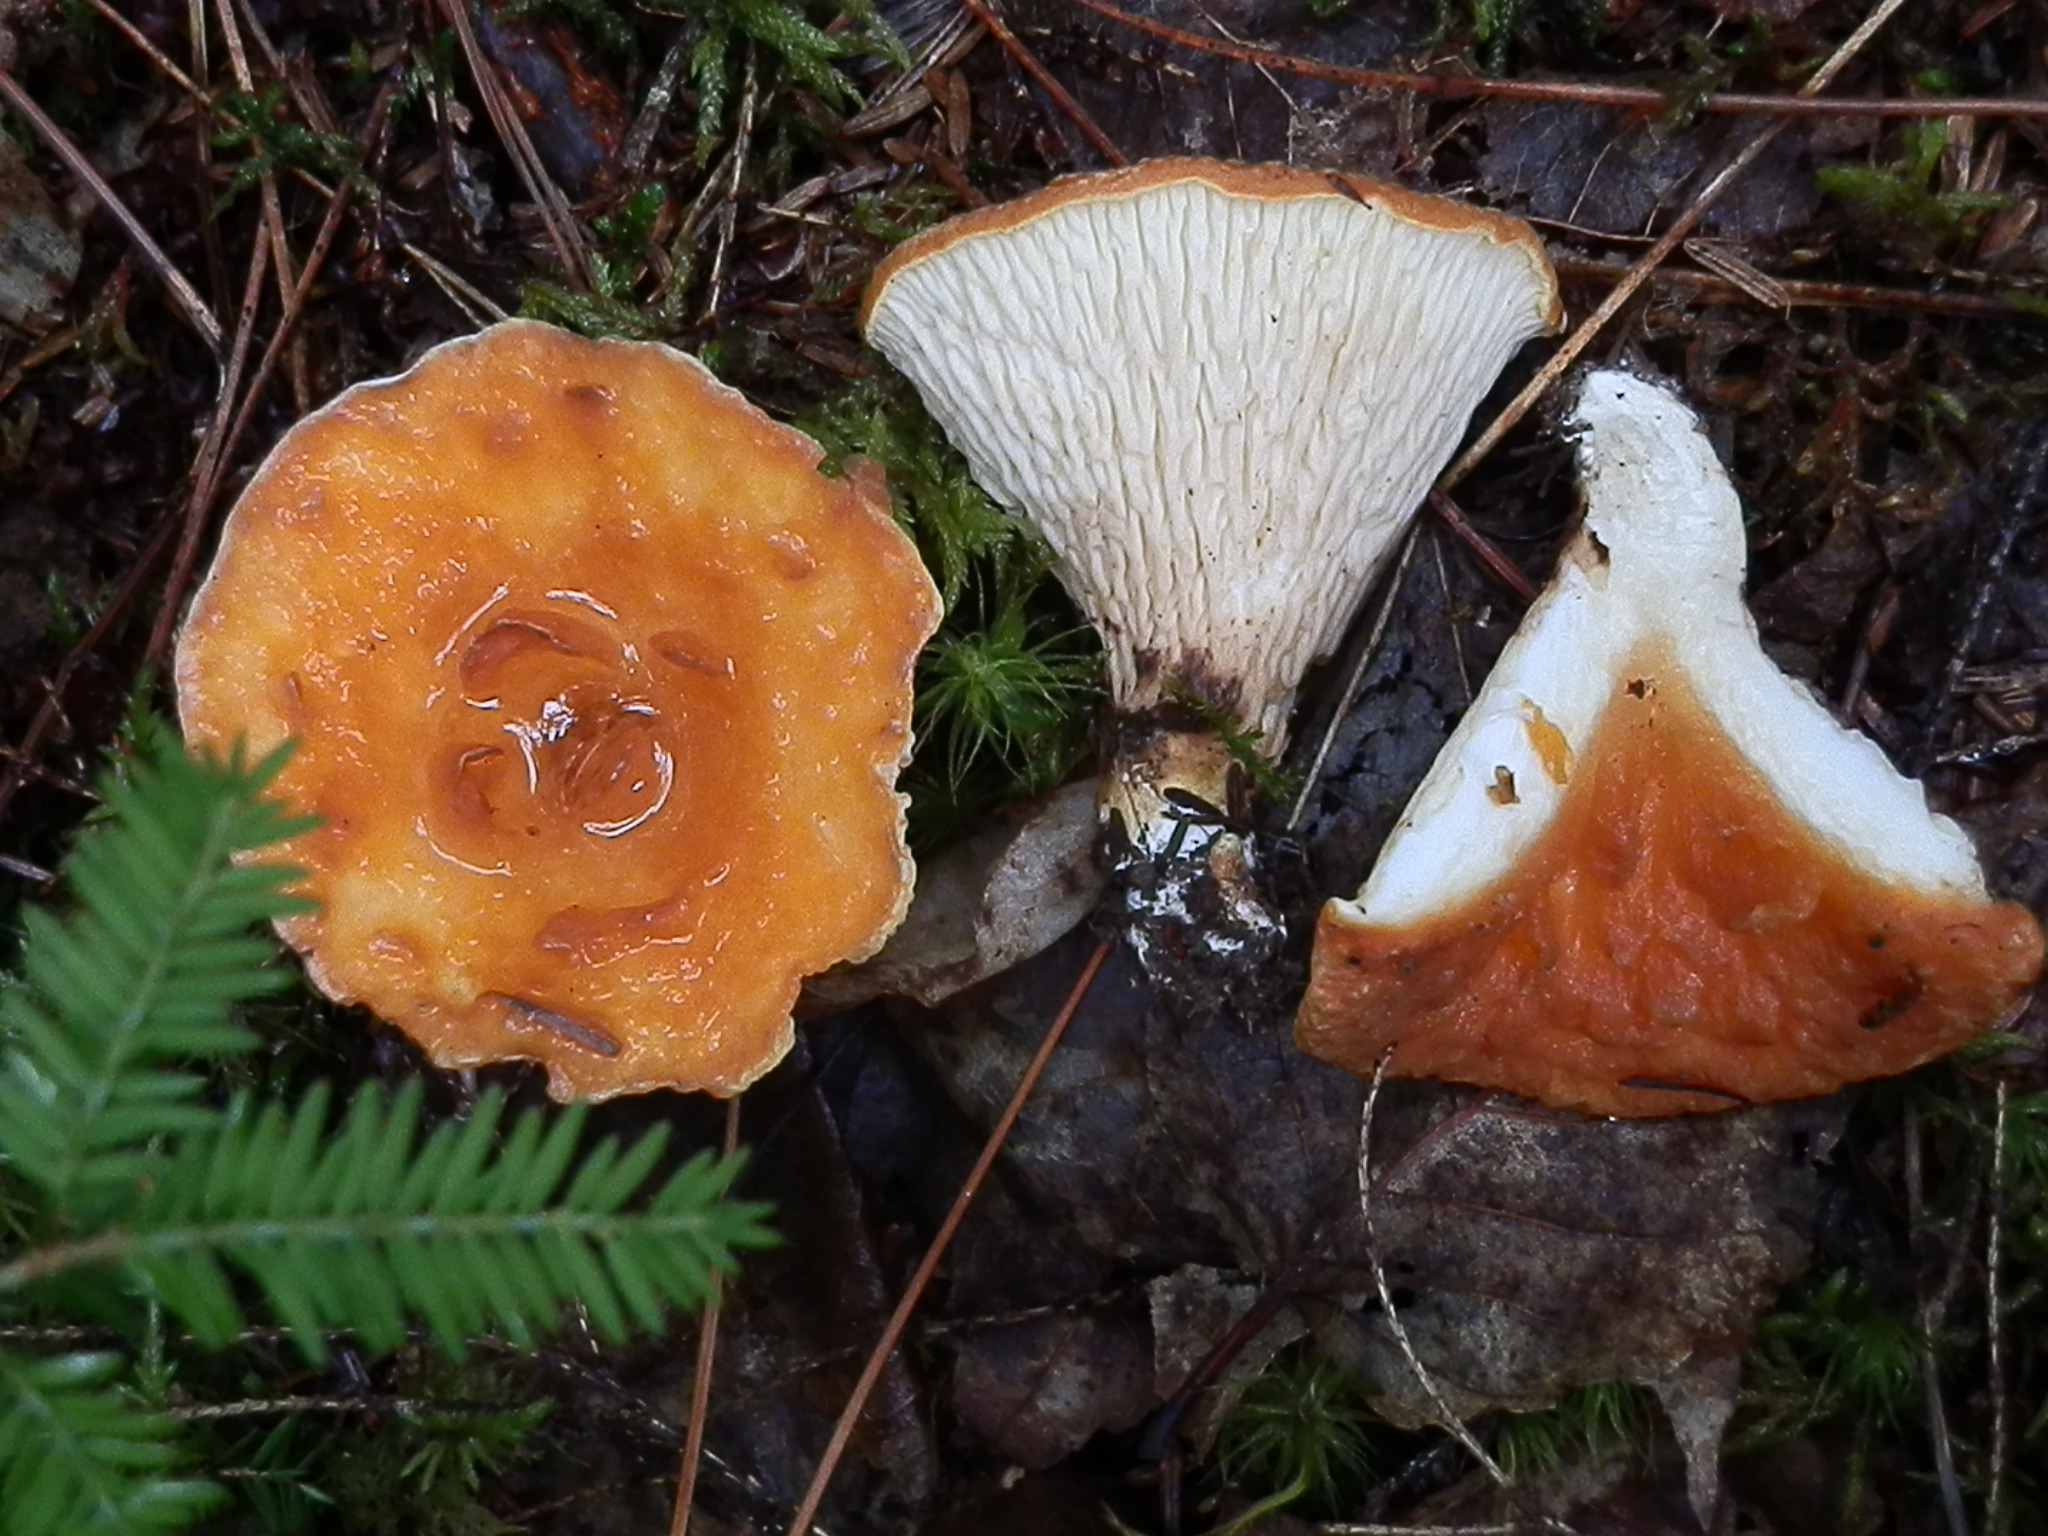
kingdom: Fungi
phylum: Basidiomycota
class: Agaricomycetes
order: Gomphales
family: Gomphaceae
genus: Turbinellus
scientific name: Turbinellus floccosus
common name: Scaly chanterelle
